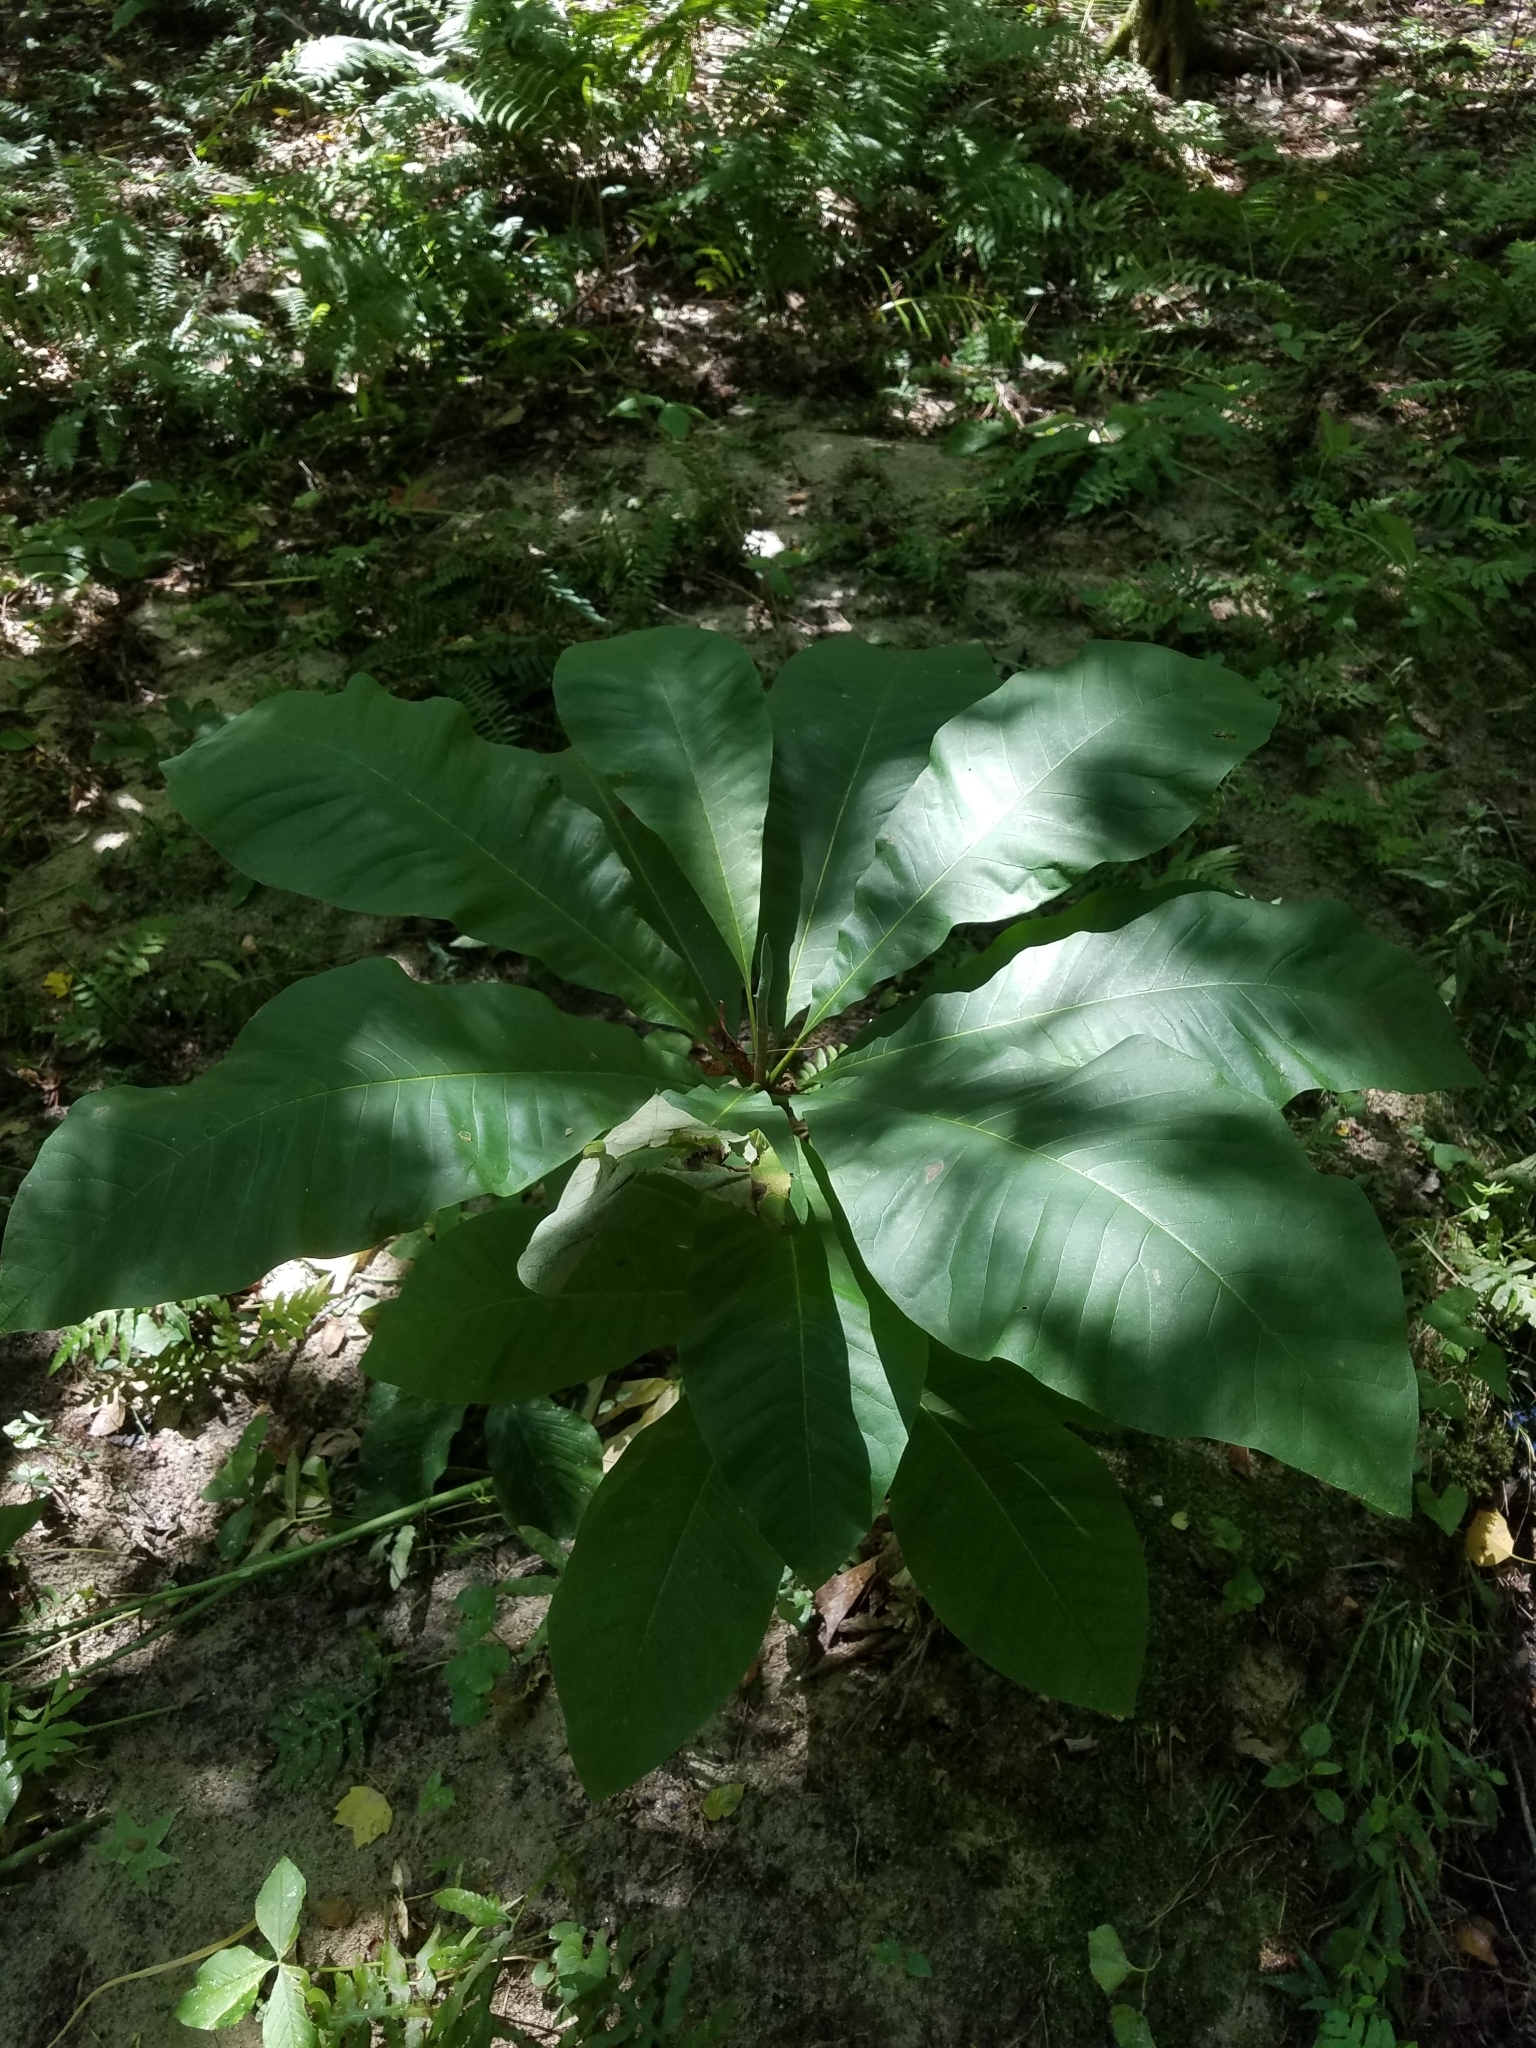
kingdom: Plantae
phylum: Tracheophyta
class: Magnoliopsida
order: Magnoliales
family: Magnoliaceae
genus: Magnolia
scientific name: Magnolia tripetala
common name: Umbrella magnolia
